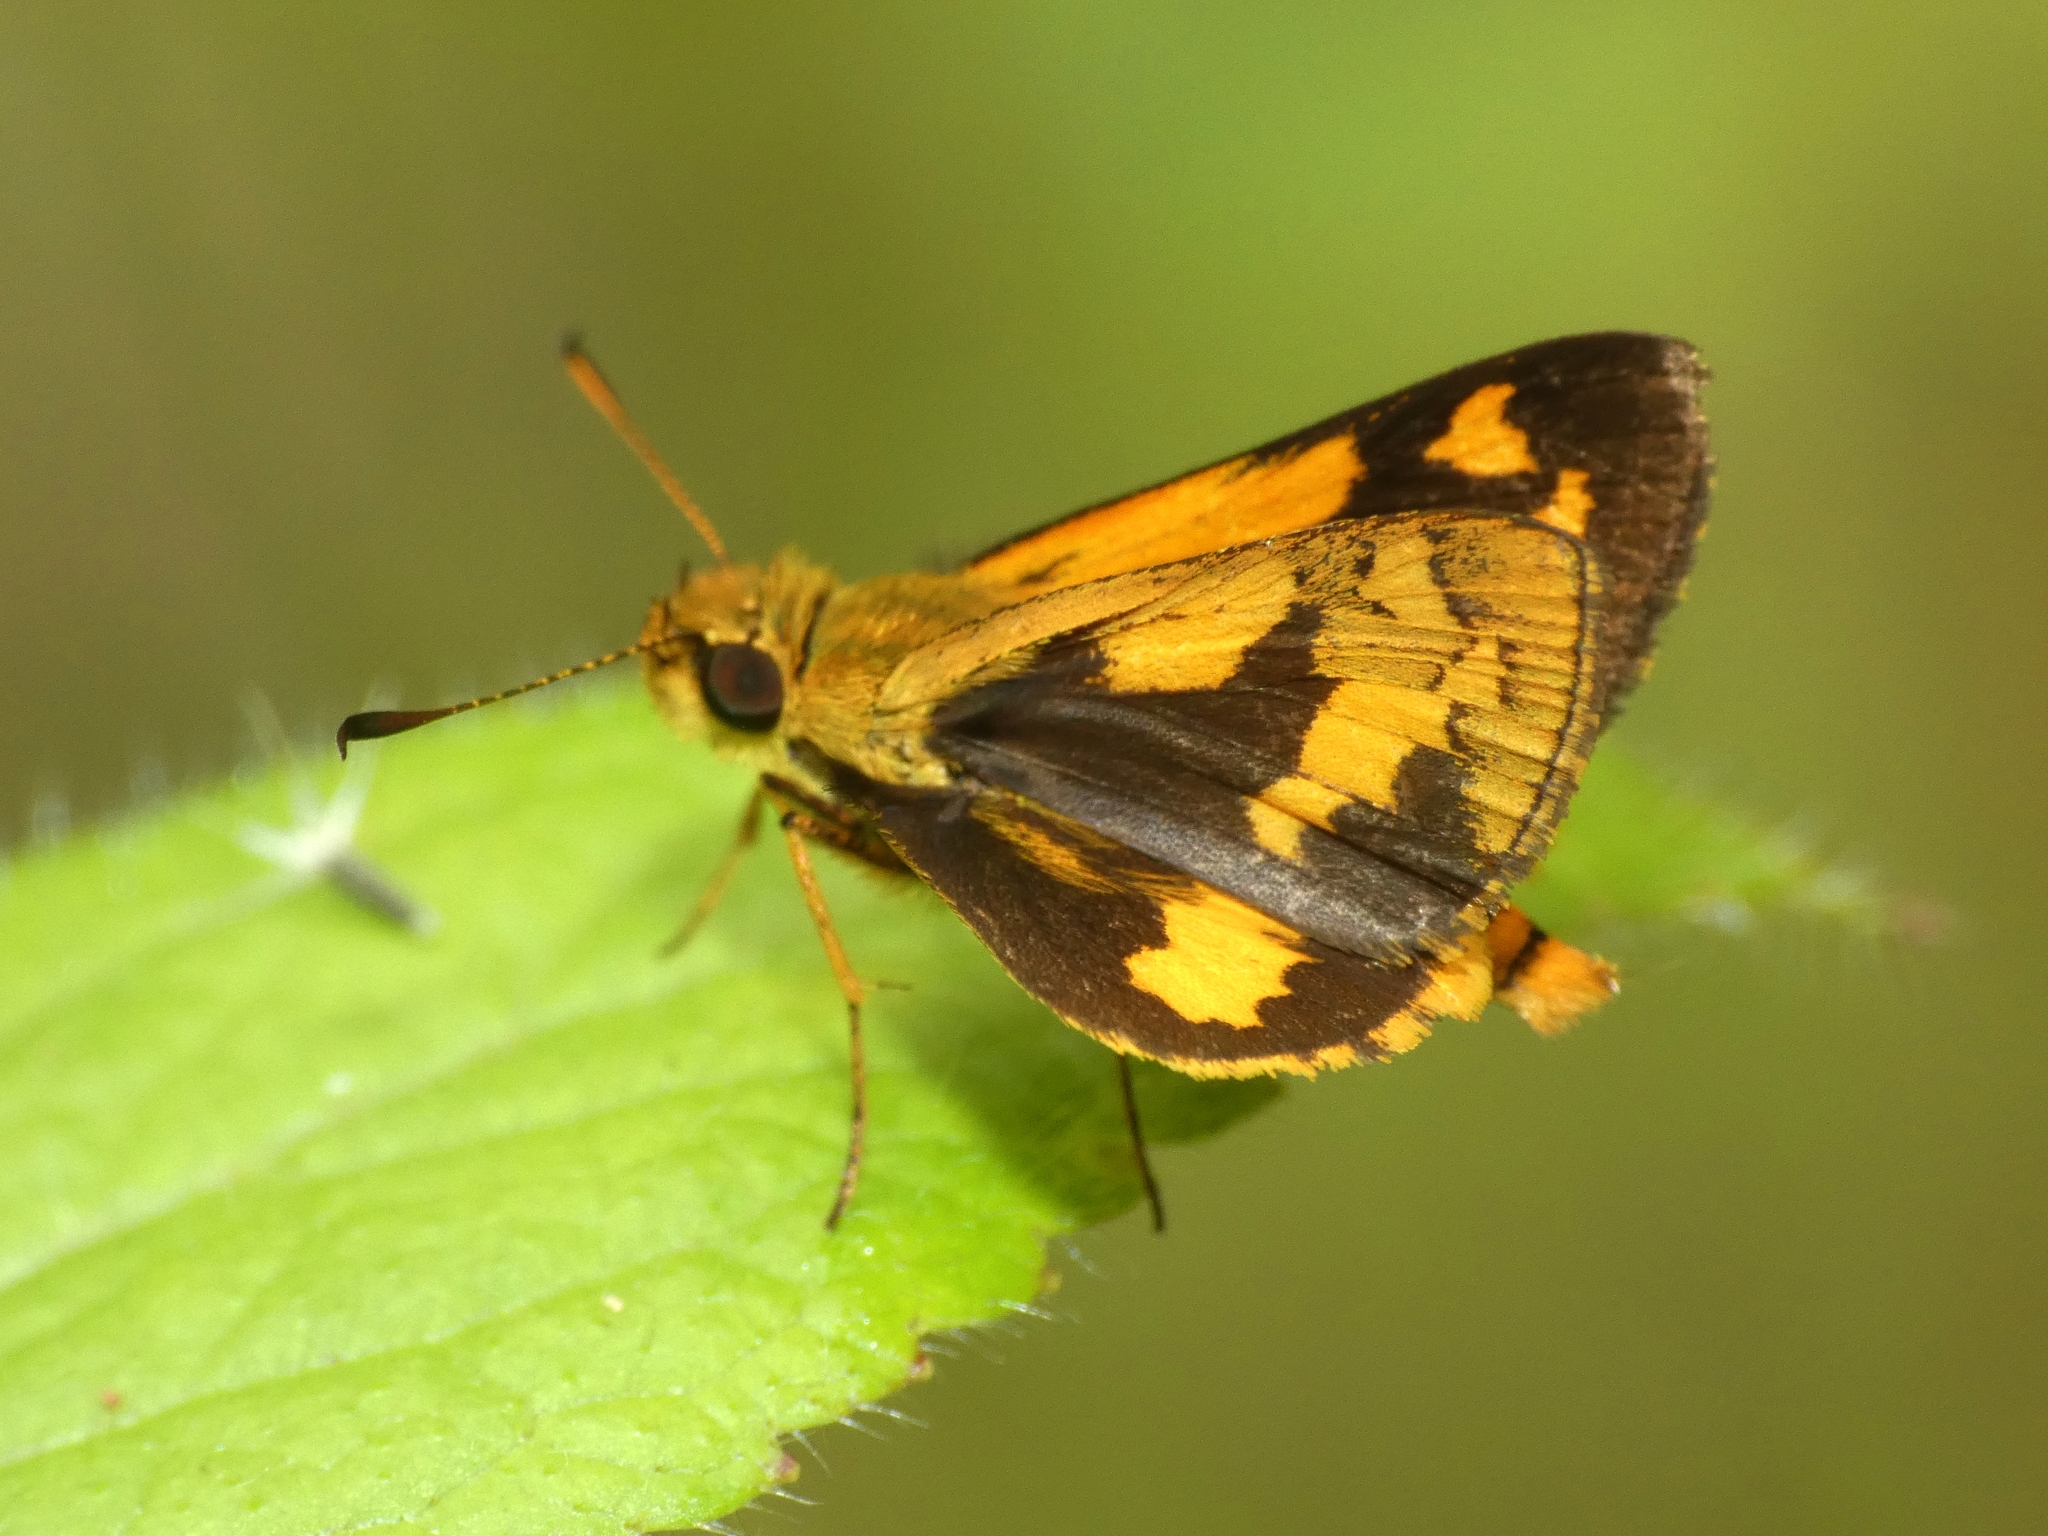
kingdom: Animalia
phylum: Arthropoda
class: Insecta
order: Lepidoptera
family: Hesperiidae
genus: Ocybadistes
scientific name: Ocybadistes ardea
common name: Dark orange dart
